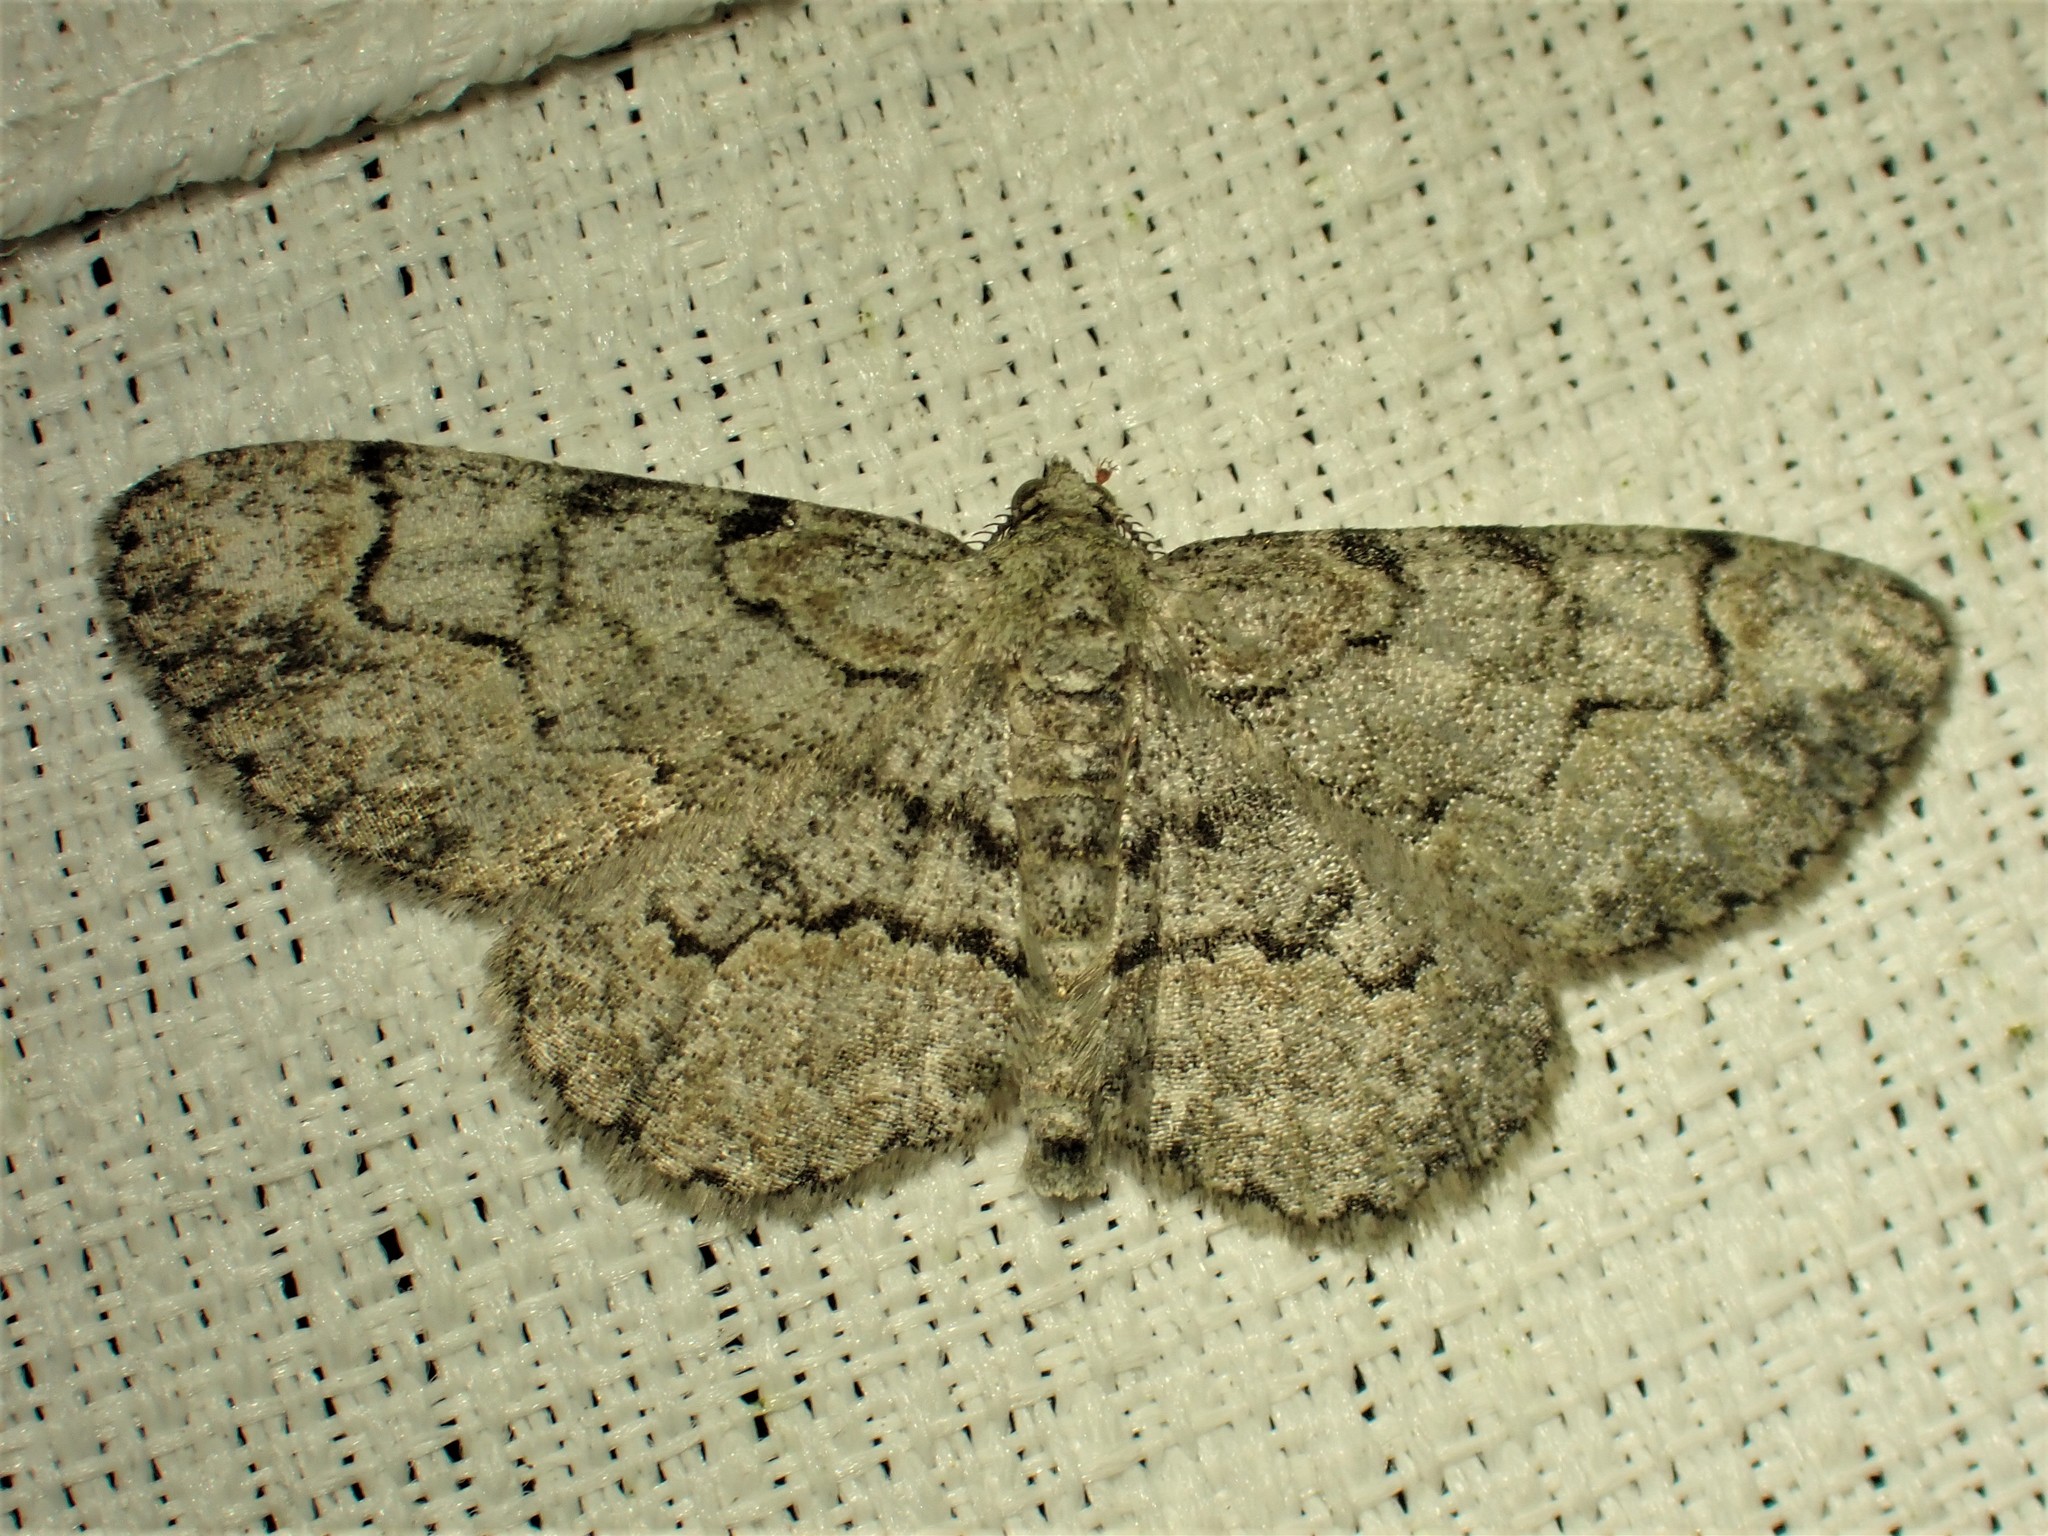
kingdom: Animalia
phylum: Arthropoda
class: Insecta
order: Lepidoptera
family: Geometridae
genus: Iridopsis
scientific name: Iridopsis ephyraria
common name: Pale-winged gray
